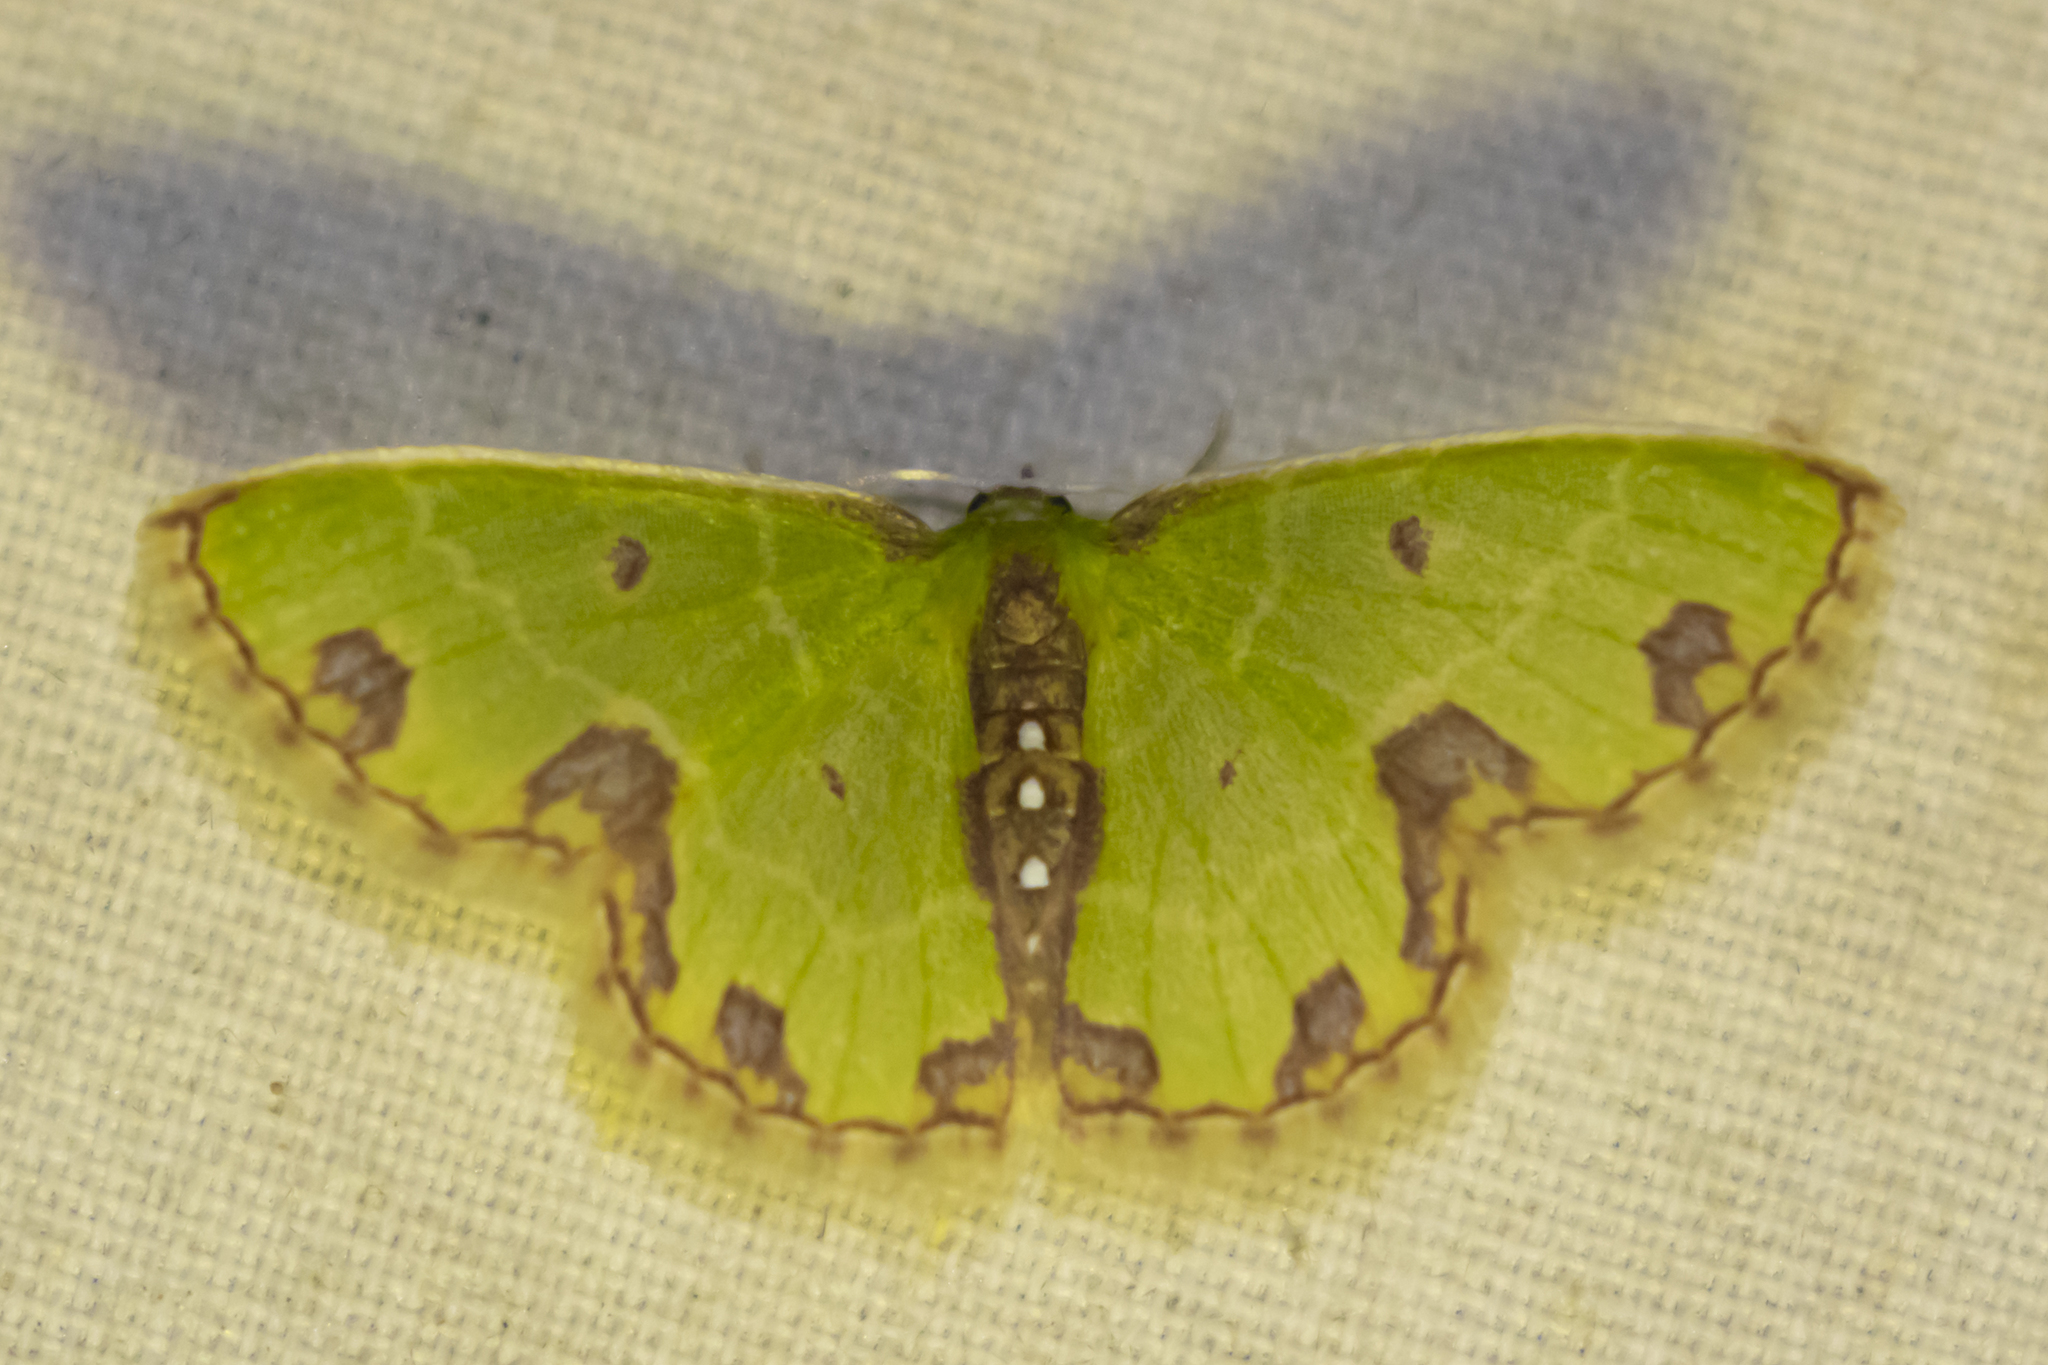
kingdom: Animalia
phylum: Arthropoda
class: Insecta
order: Lepidoptera
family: Geometridae
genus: Synchlora
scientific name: Synchlora gerularia
